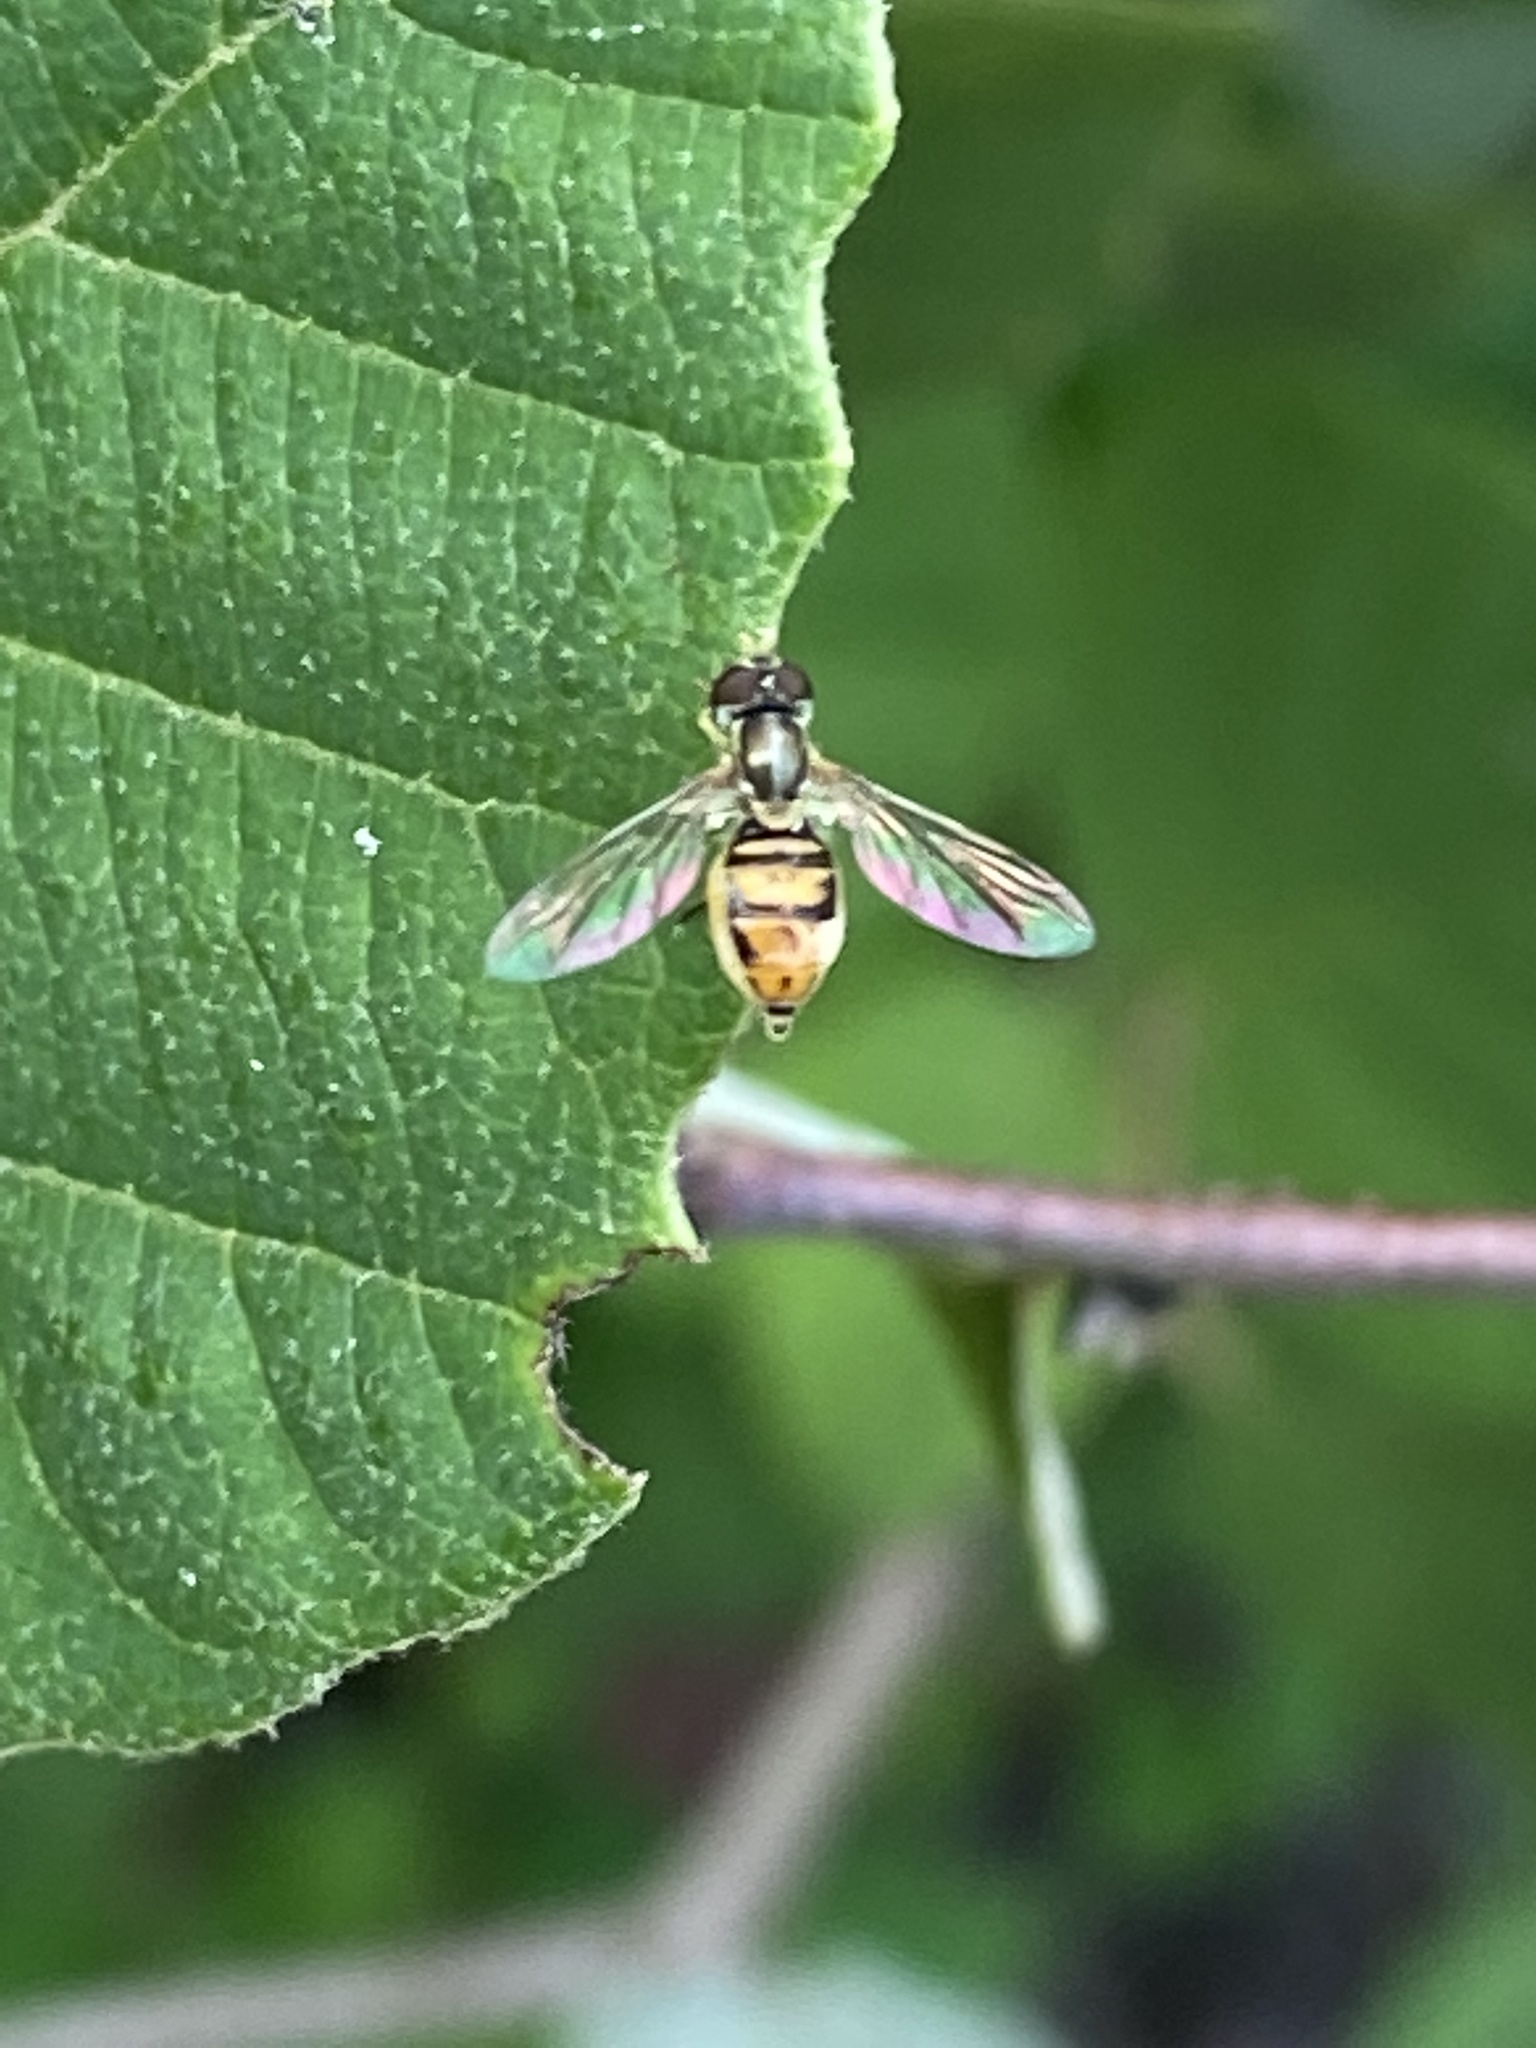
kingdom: Animalia
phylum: Arthropoda
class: Insecta
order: Diptera
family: Syrphidae
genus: Toxomerus
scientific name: Toxomerus marginatus
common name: Syrphid fly
